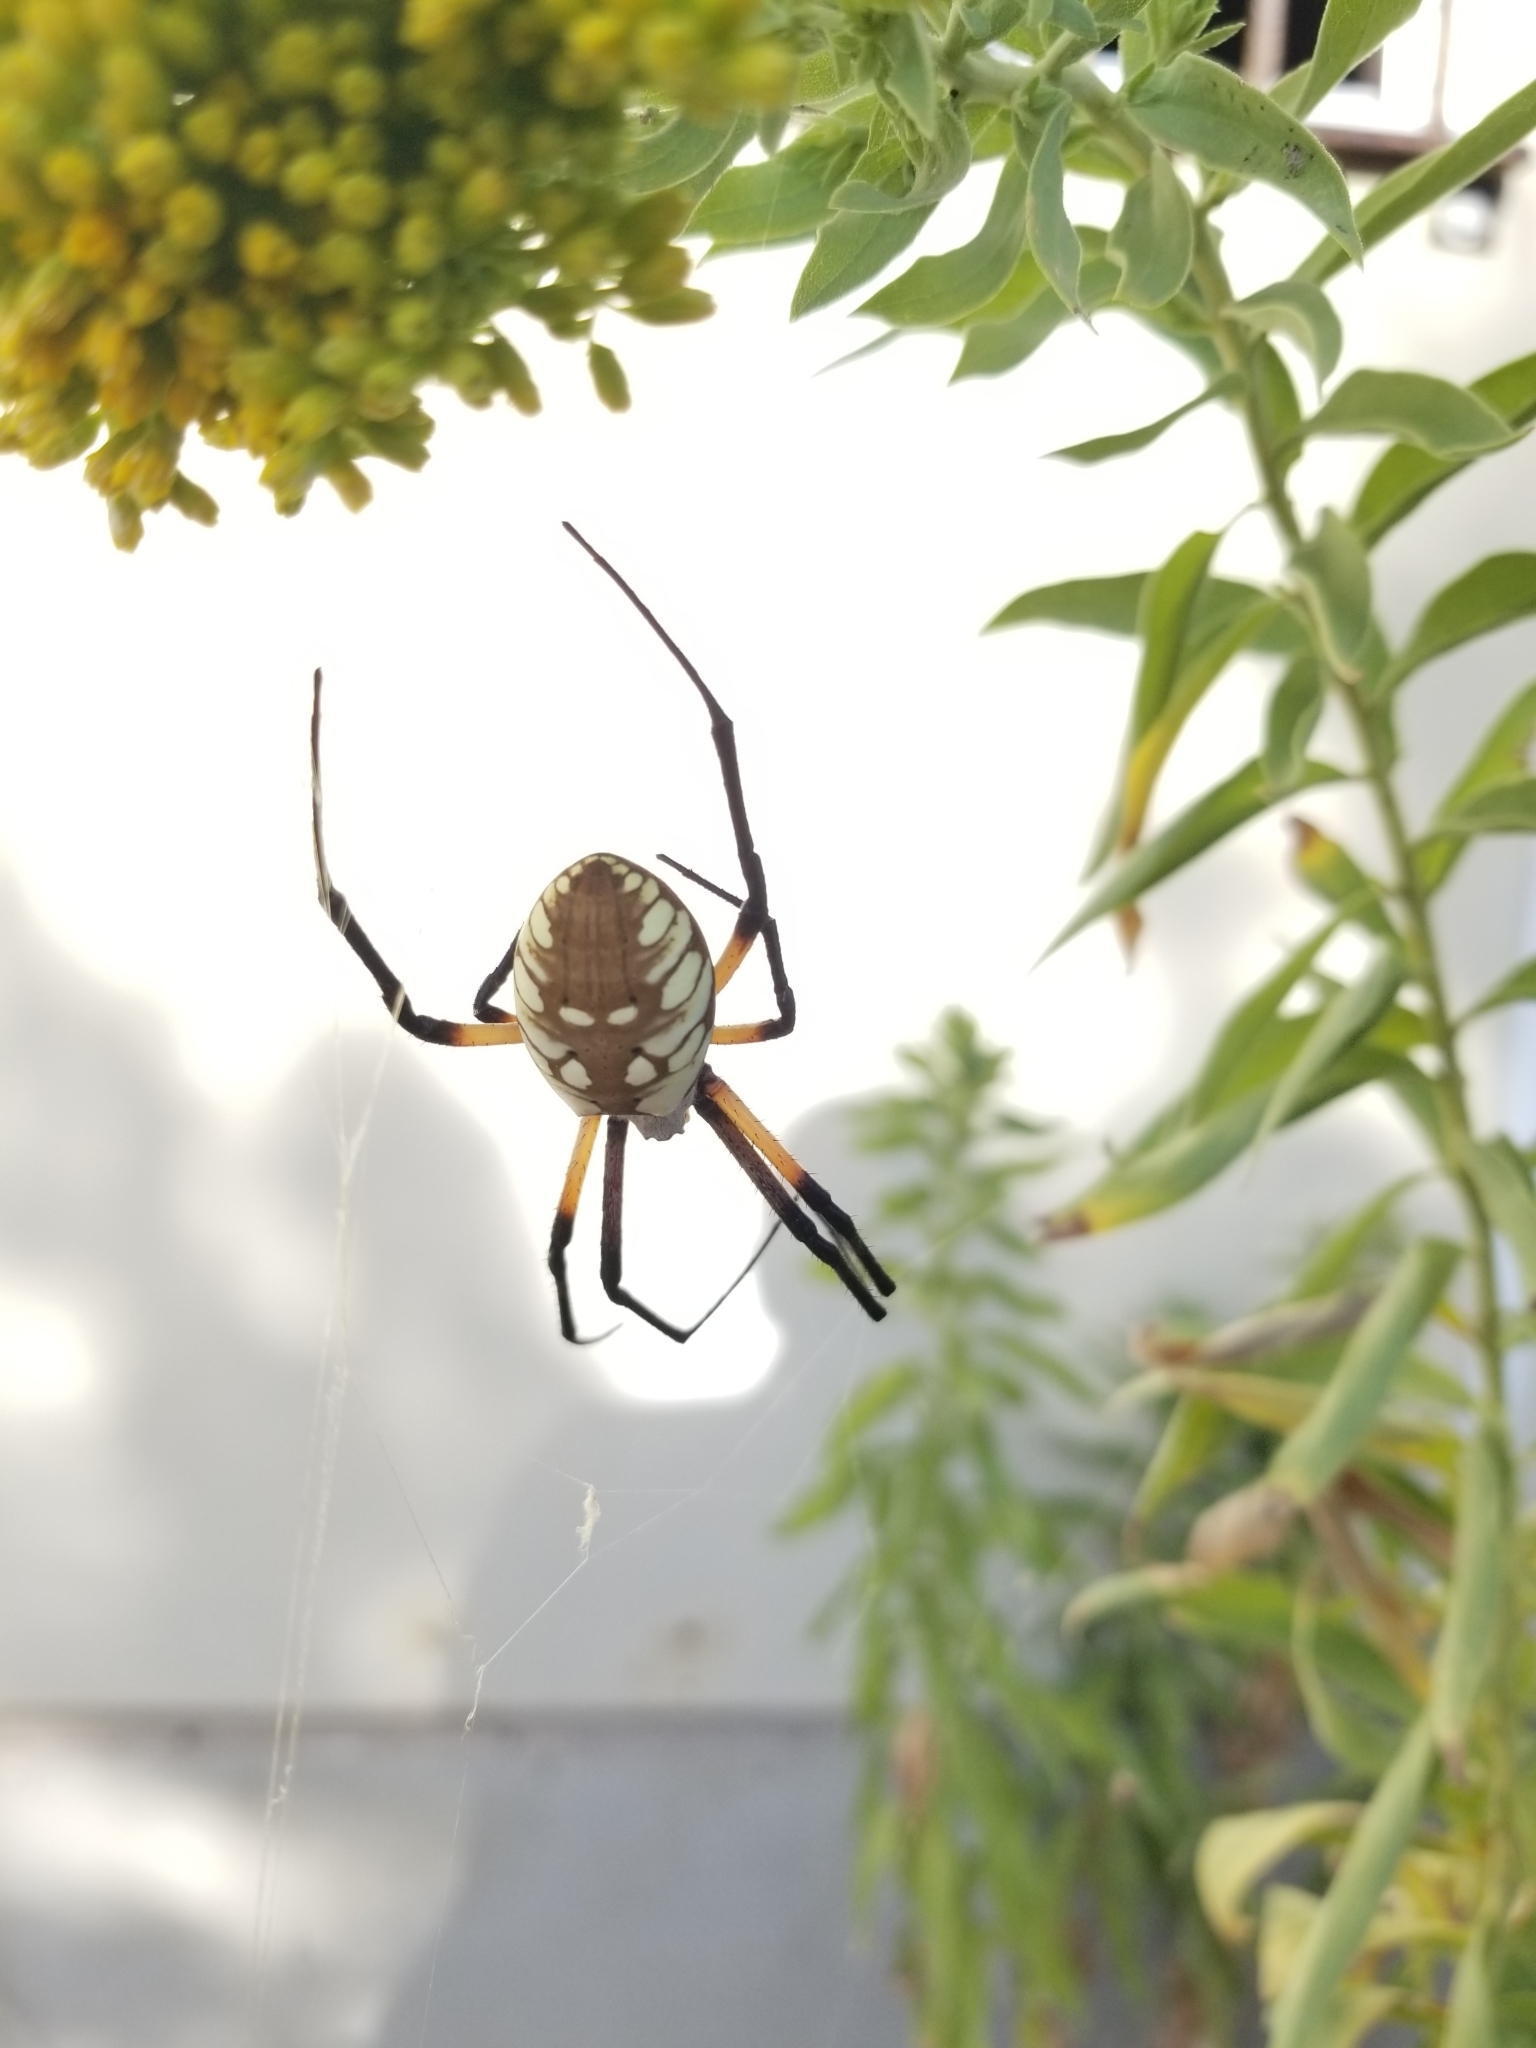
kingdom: Animalia
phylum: Arthropoda
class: Arachnida
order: Araneae
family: Araneidae
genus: Argiope
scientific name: Argiope aurantia
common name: Orb weavers
